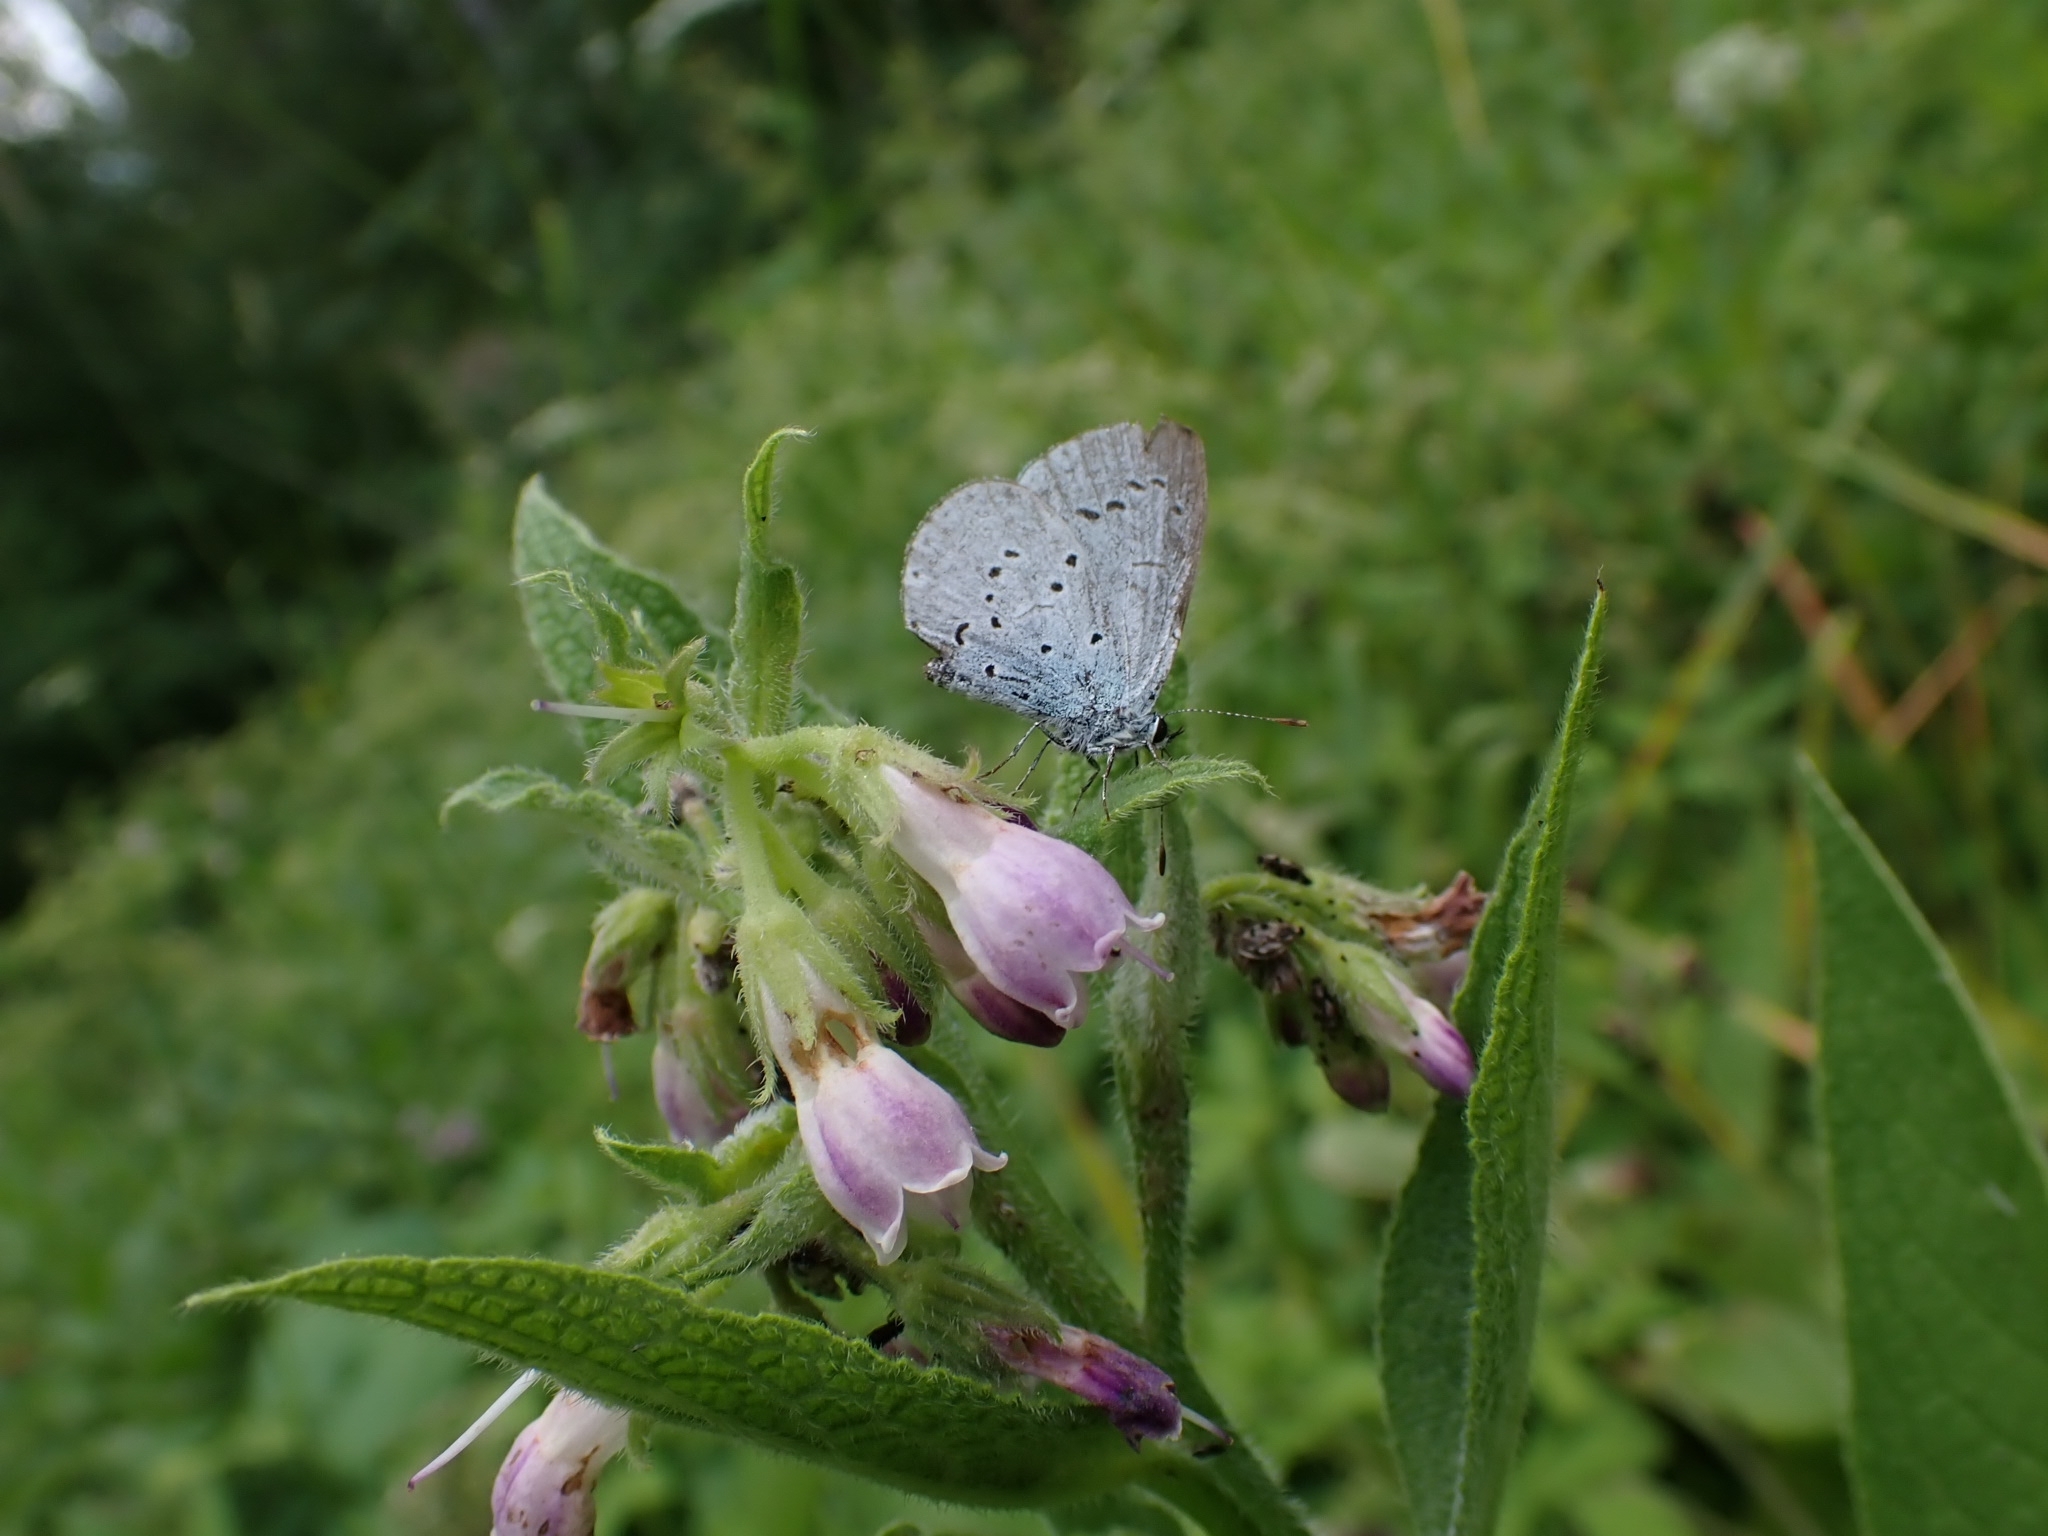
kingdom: Animalia
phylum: Arthropoda
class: Insecta
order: Lepidoptera
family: Lycaenidae
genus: Celastrina
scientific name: Celastrina argiolus
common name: Holly blue
